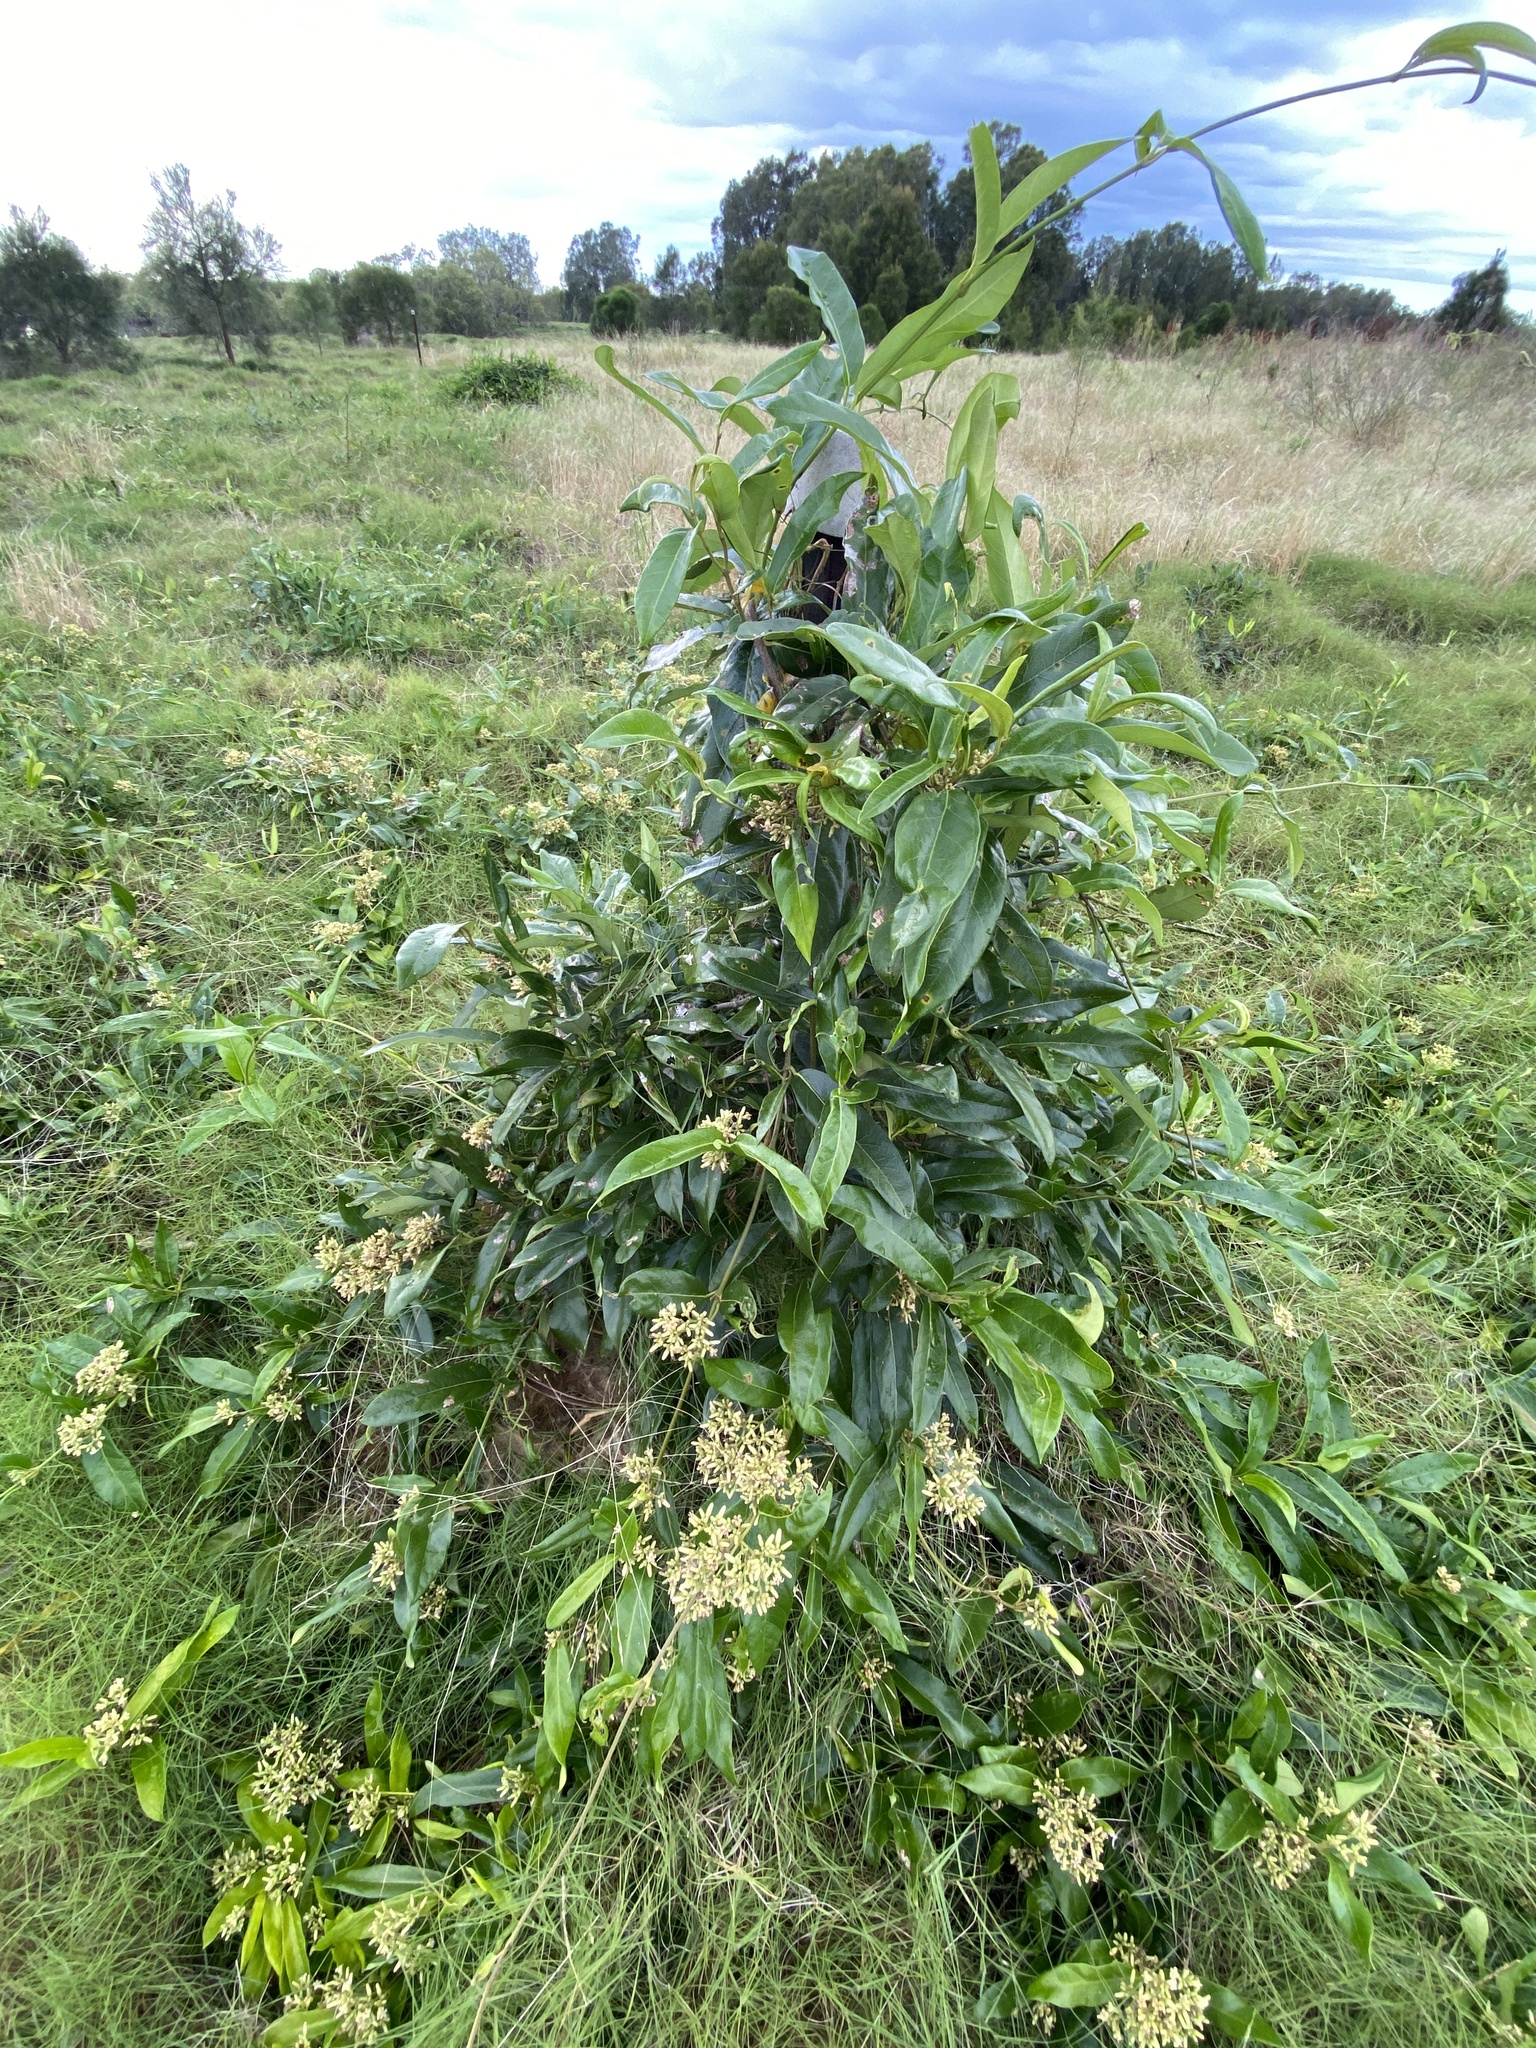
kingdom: Plantae
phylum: Tracheophyta
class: Magnoliopsida
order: Gentianales
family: Apocynaceae
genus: Parsonsia
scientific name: Parsonsia straminea
